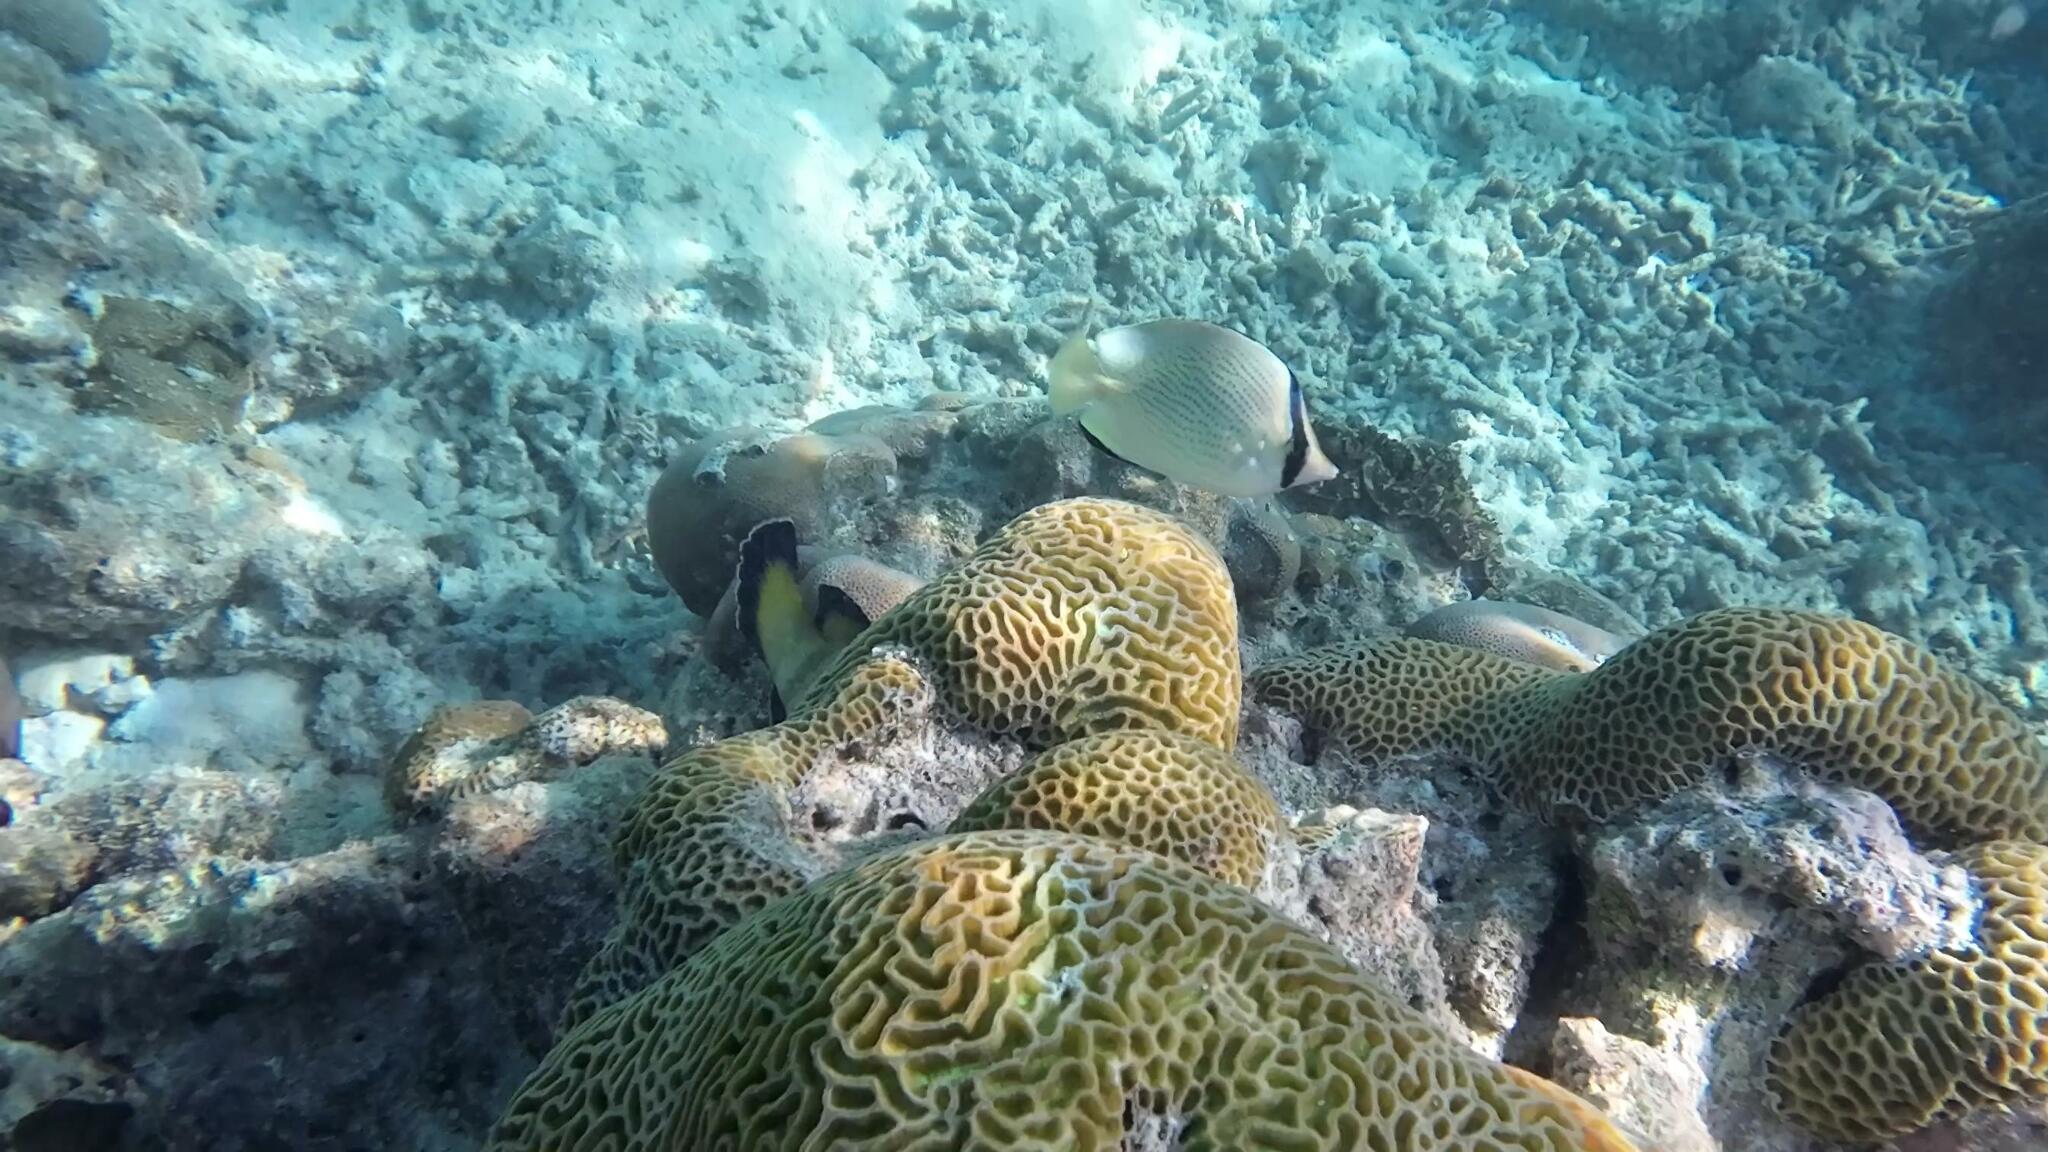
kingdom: Animalia
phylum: Chordata
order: Perciformes
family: Chaetodontidae
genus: Chaetodon
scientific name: Chaetodon citrinellus
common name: Speckled butterflyfish
